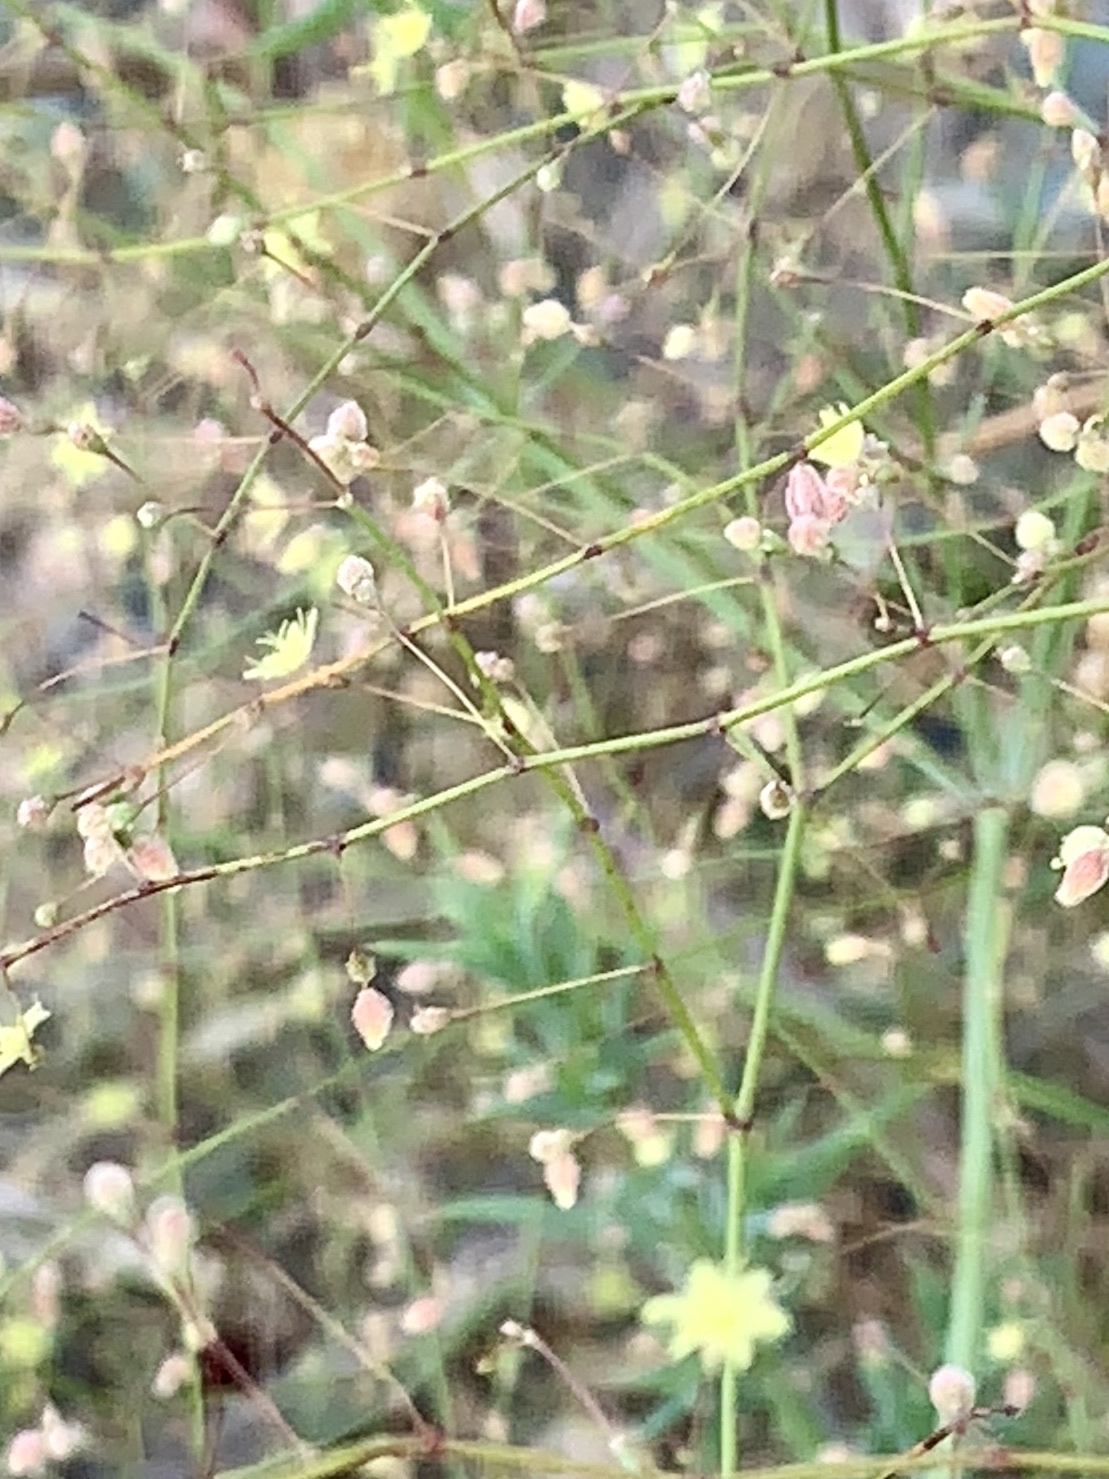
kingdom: Plantae
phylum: Tracheophyta
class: Magnoliopsida
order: Caryophyllales
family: Polygonaceae
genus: Eriogonum
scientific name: Eriogonum trichopes
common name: Little desert trumpet
